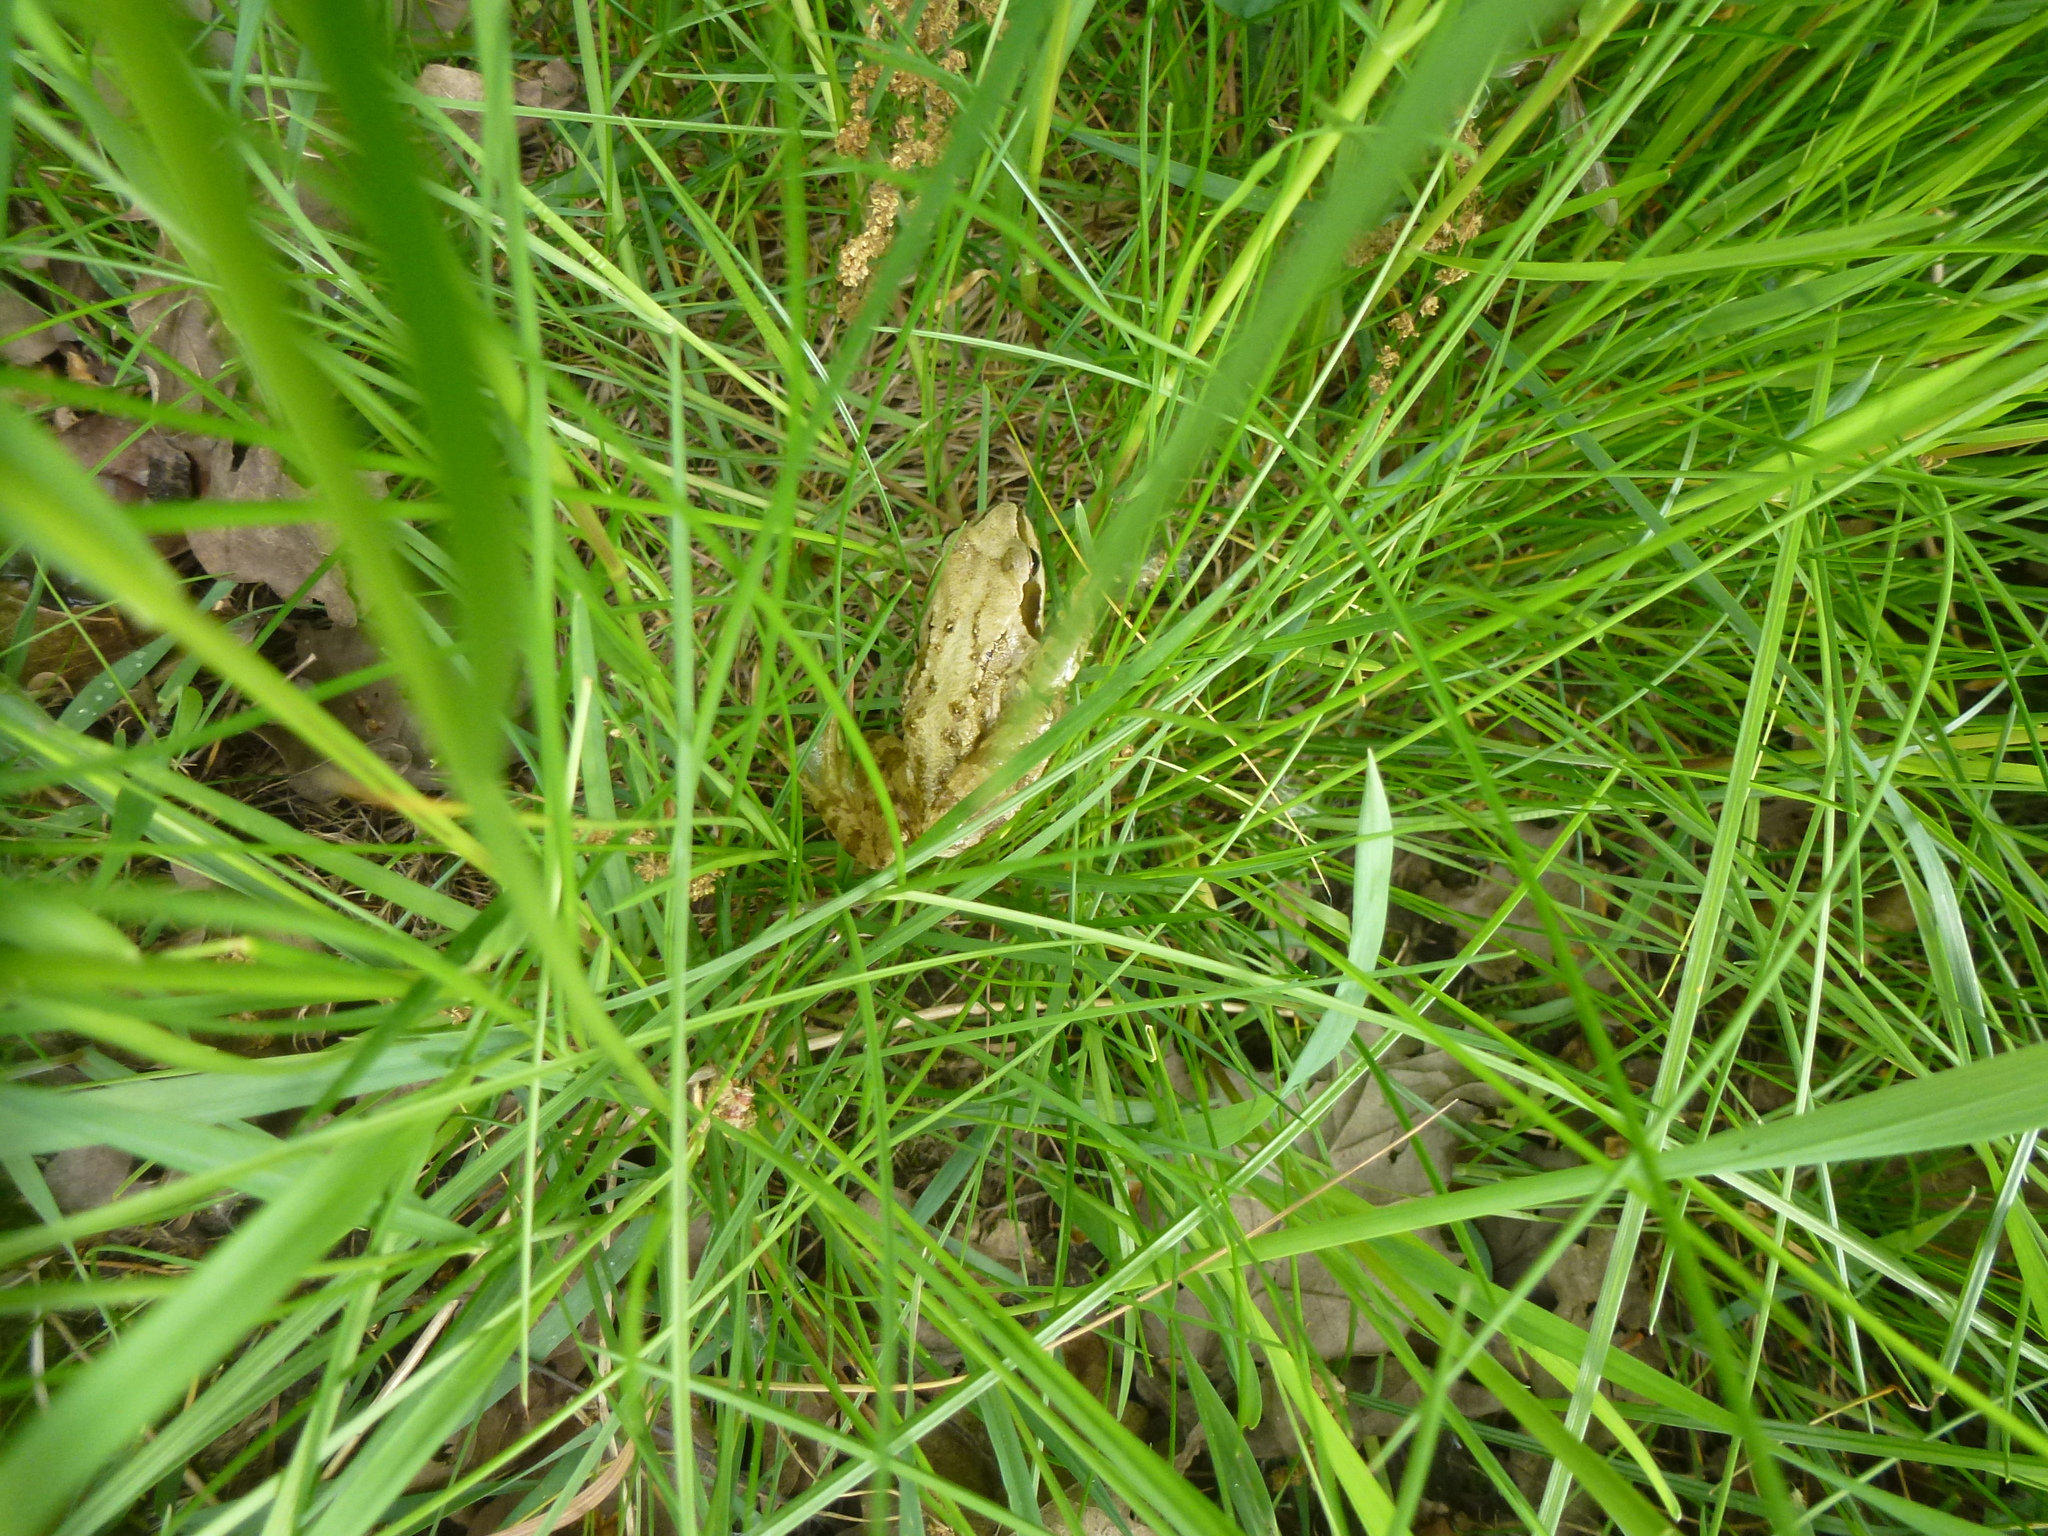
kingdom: Animalia
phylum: Chordata
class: Amphibia
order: Anura
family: Ranidae
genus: Rana
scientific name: Rana temporaria
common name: Common frog
